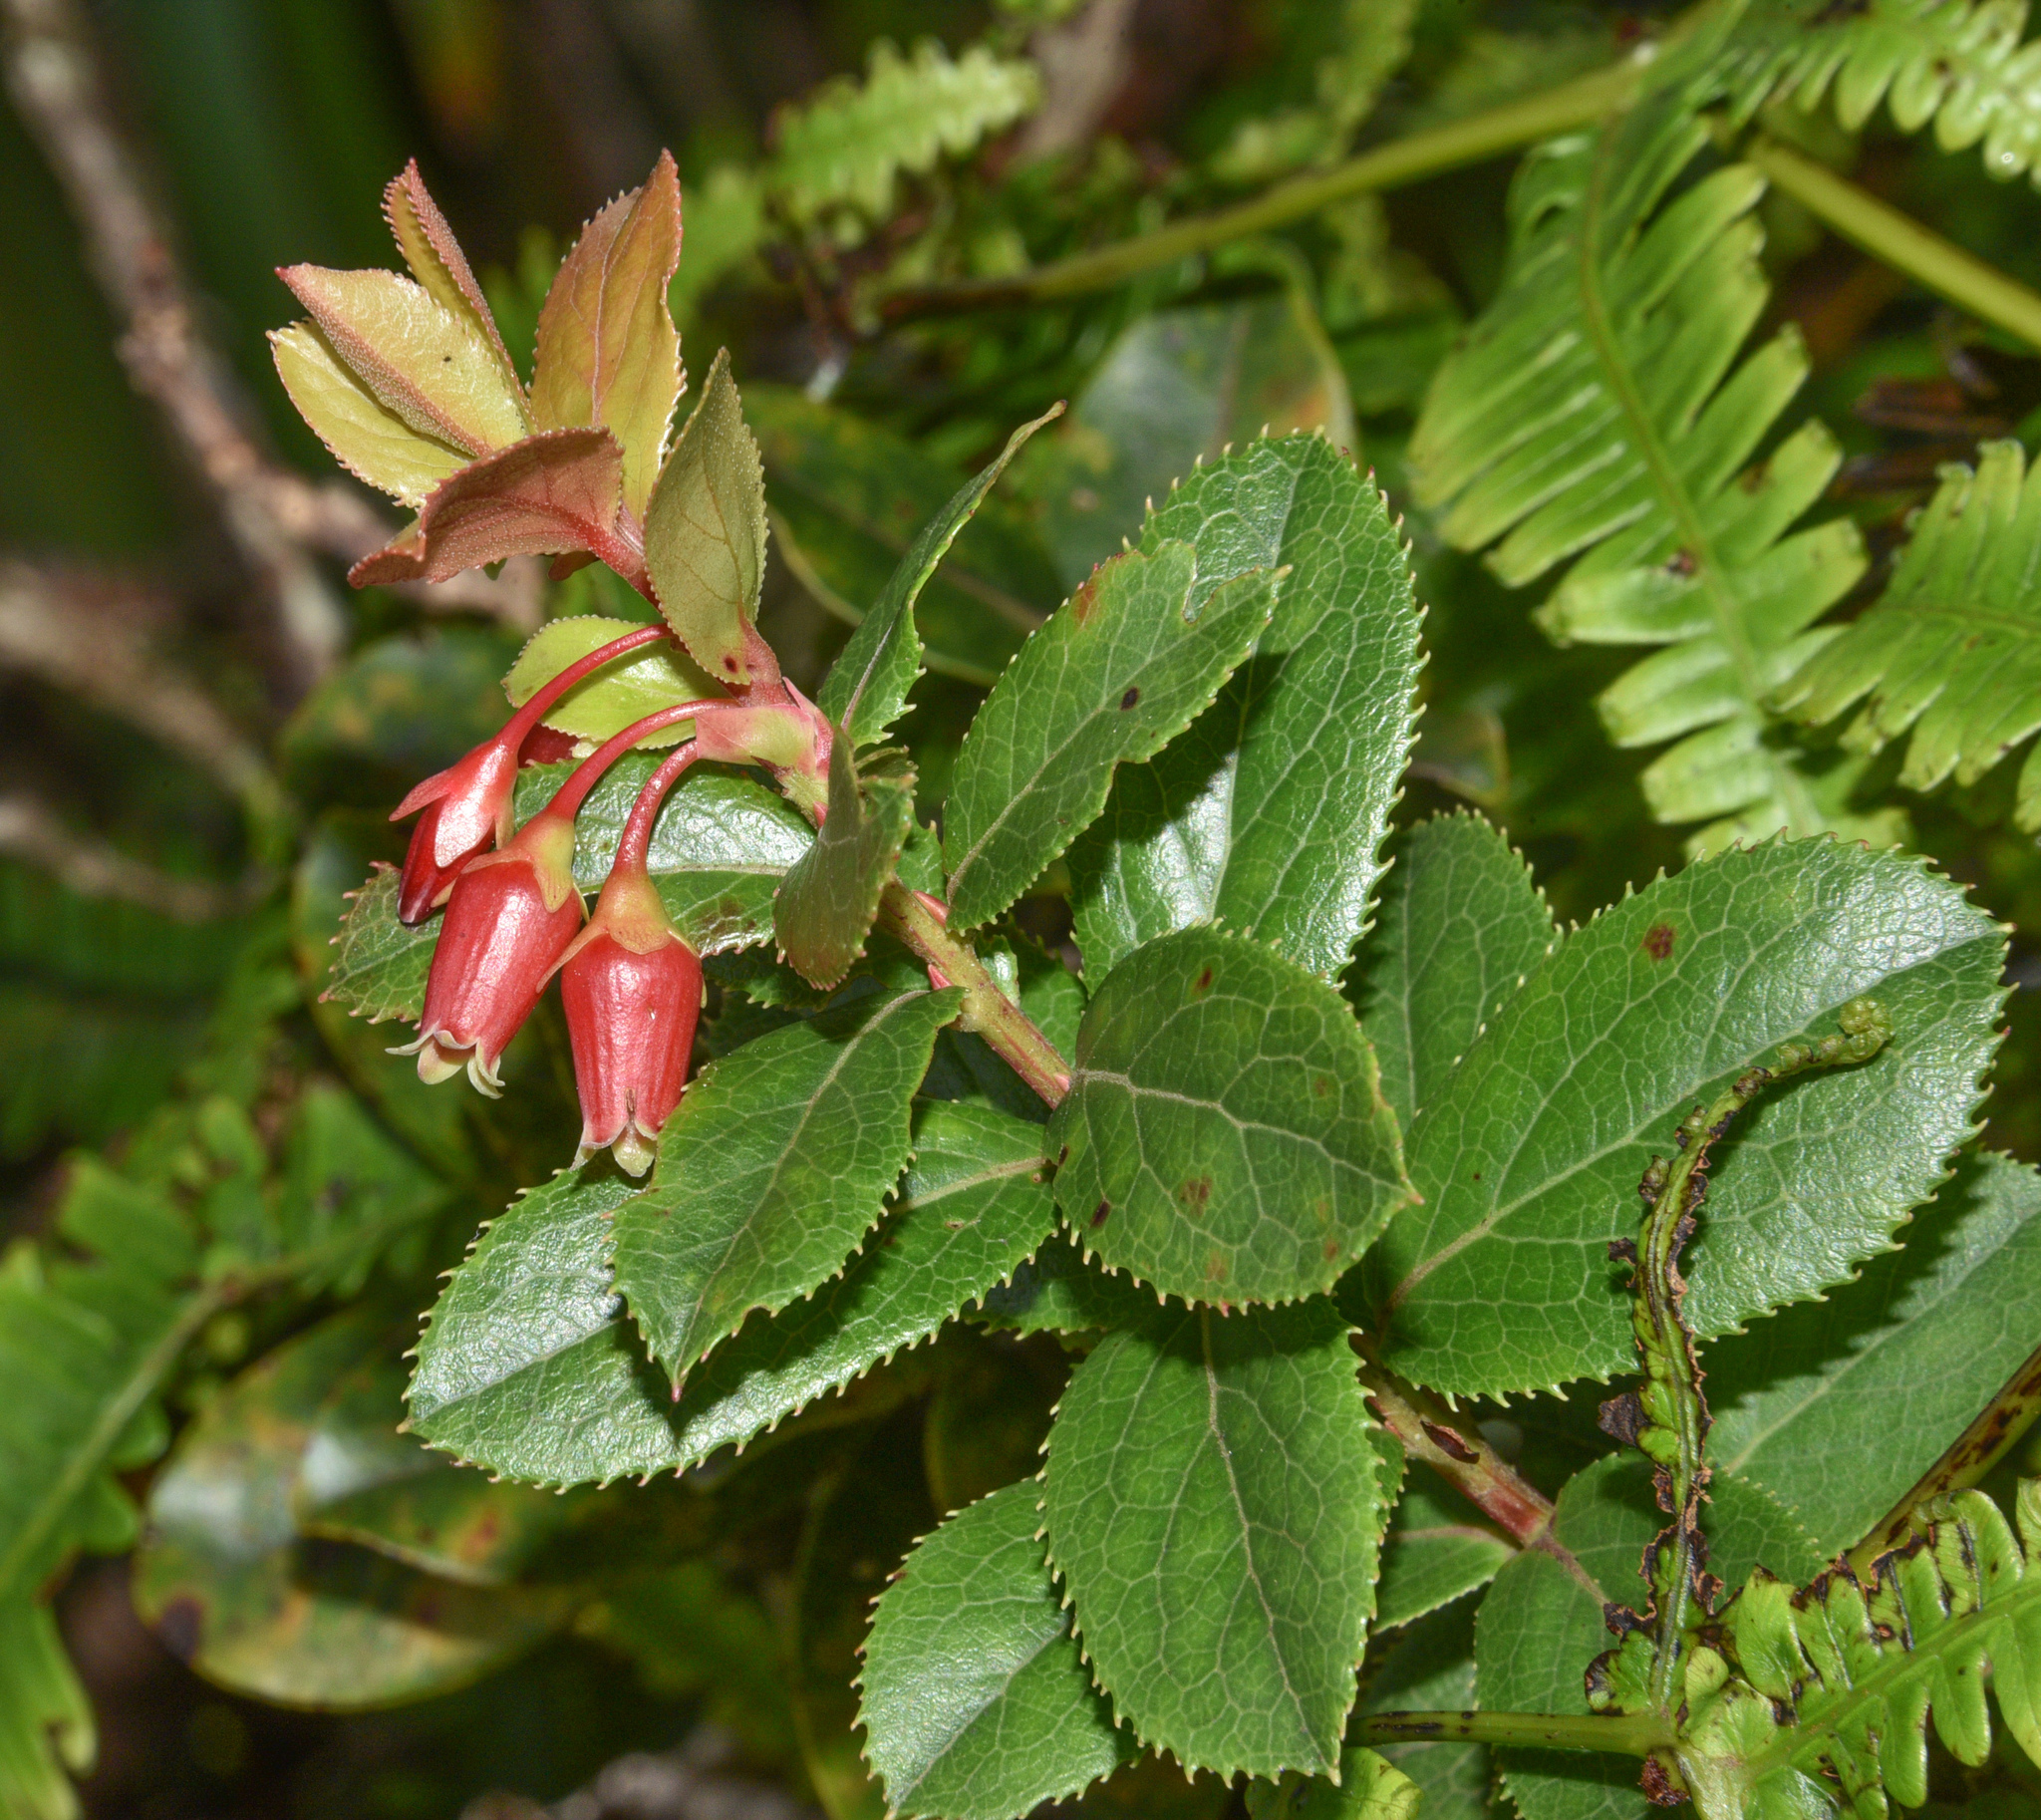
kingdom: Plantae
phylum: Tracheophyta
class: Magnoliopsida
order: Ericales
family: Ericaceae
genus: Vaccinium
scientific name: Vaccinium dentatum
